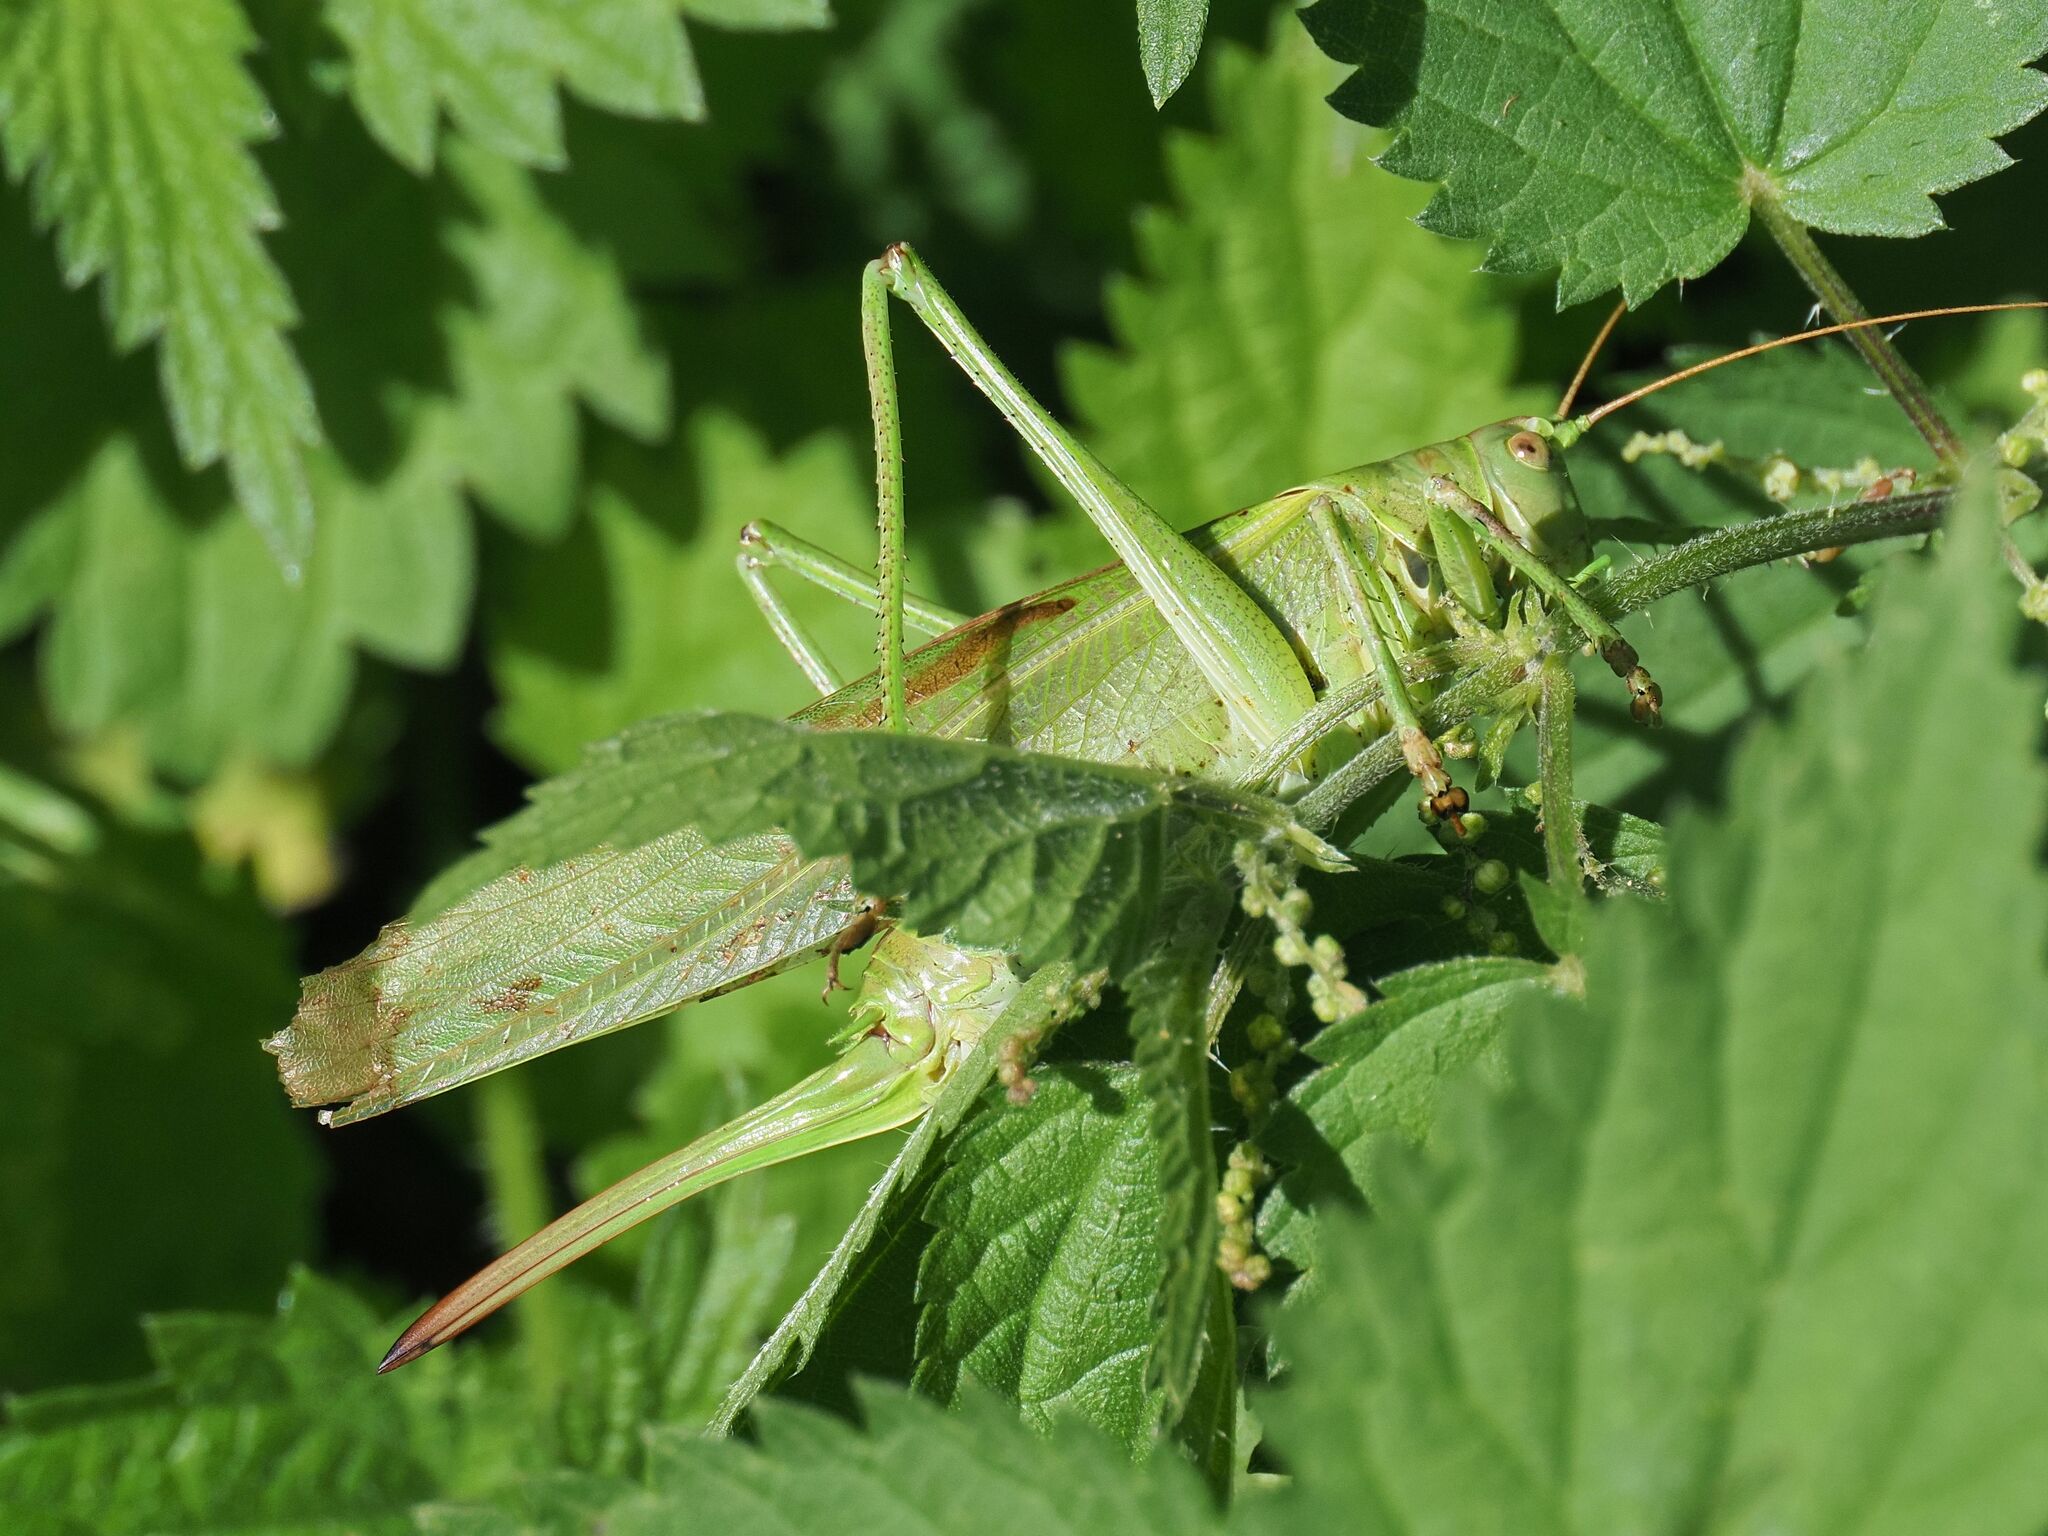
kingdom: Animalia
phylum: Arthropoda
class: Insecta
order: Orthoptera
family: Tettigoniidae
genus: Tettigonia
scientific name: Tettigonia viridissima
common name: Great green bush-cricket
